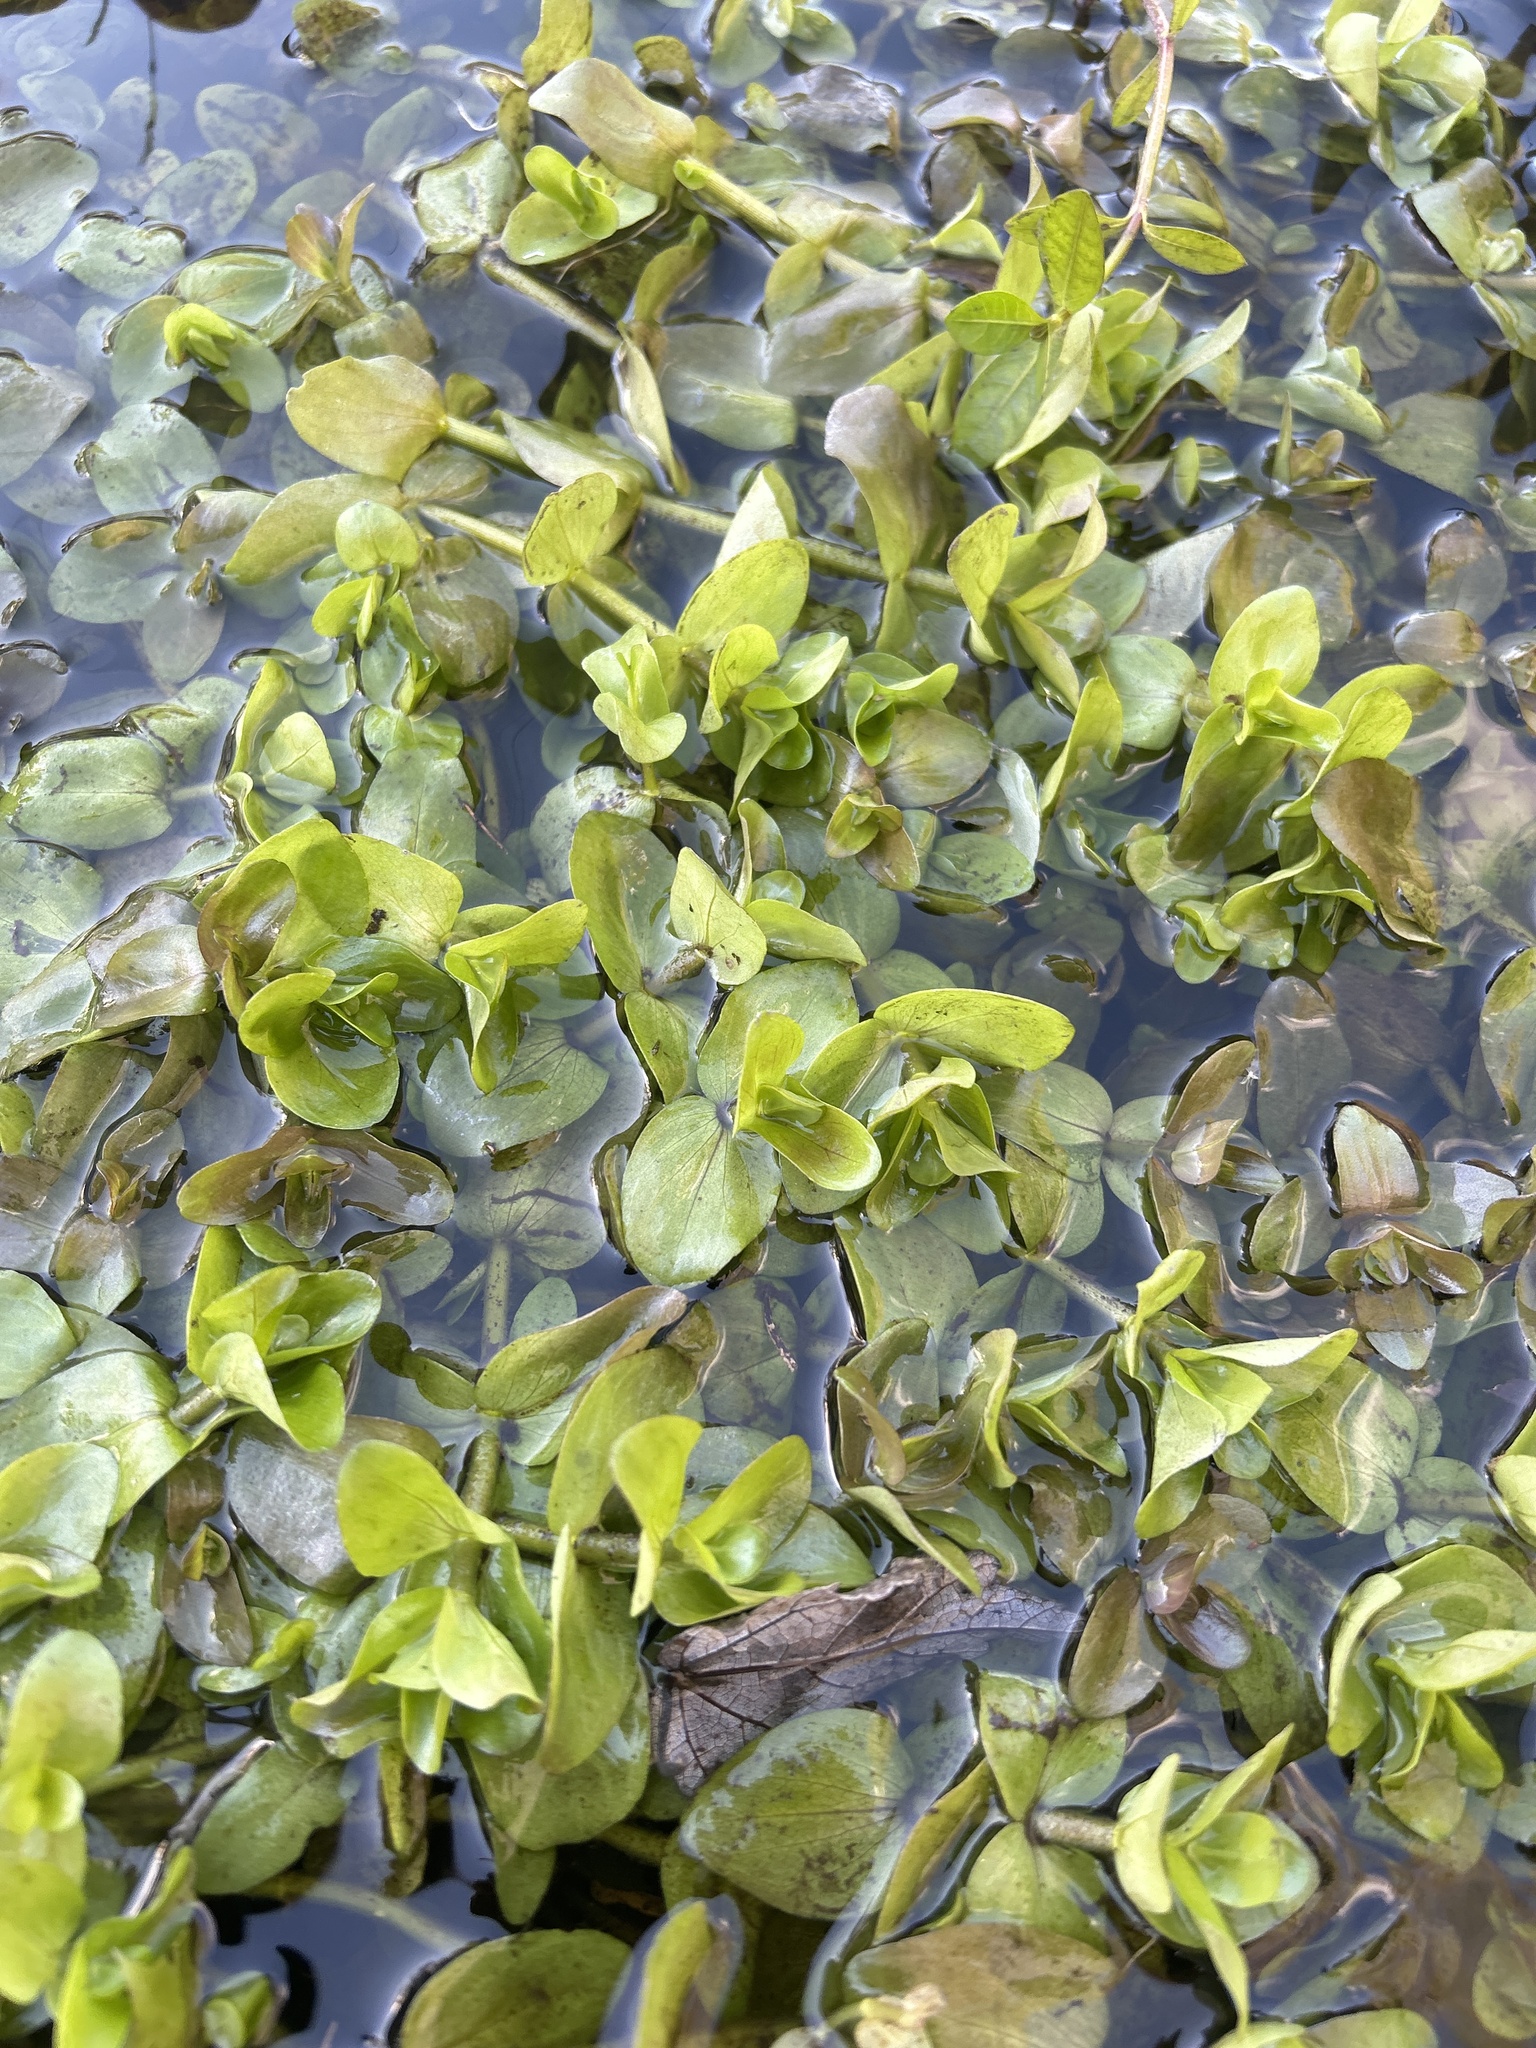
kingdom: Plantae
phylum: Tracheophyta
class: Magnoliopsida
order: Lamiales
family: Plantaginaceae
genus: Bacopa
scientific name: Bacopa caroliniana
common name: Lemon bacopa
